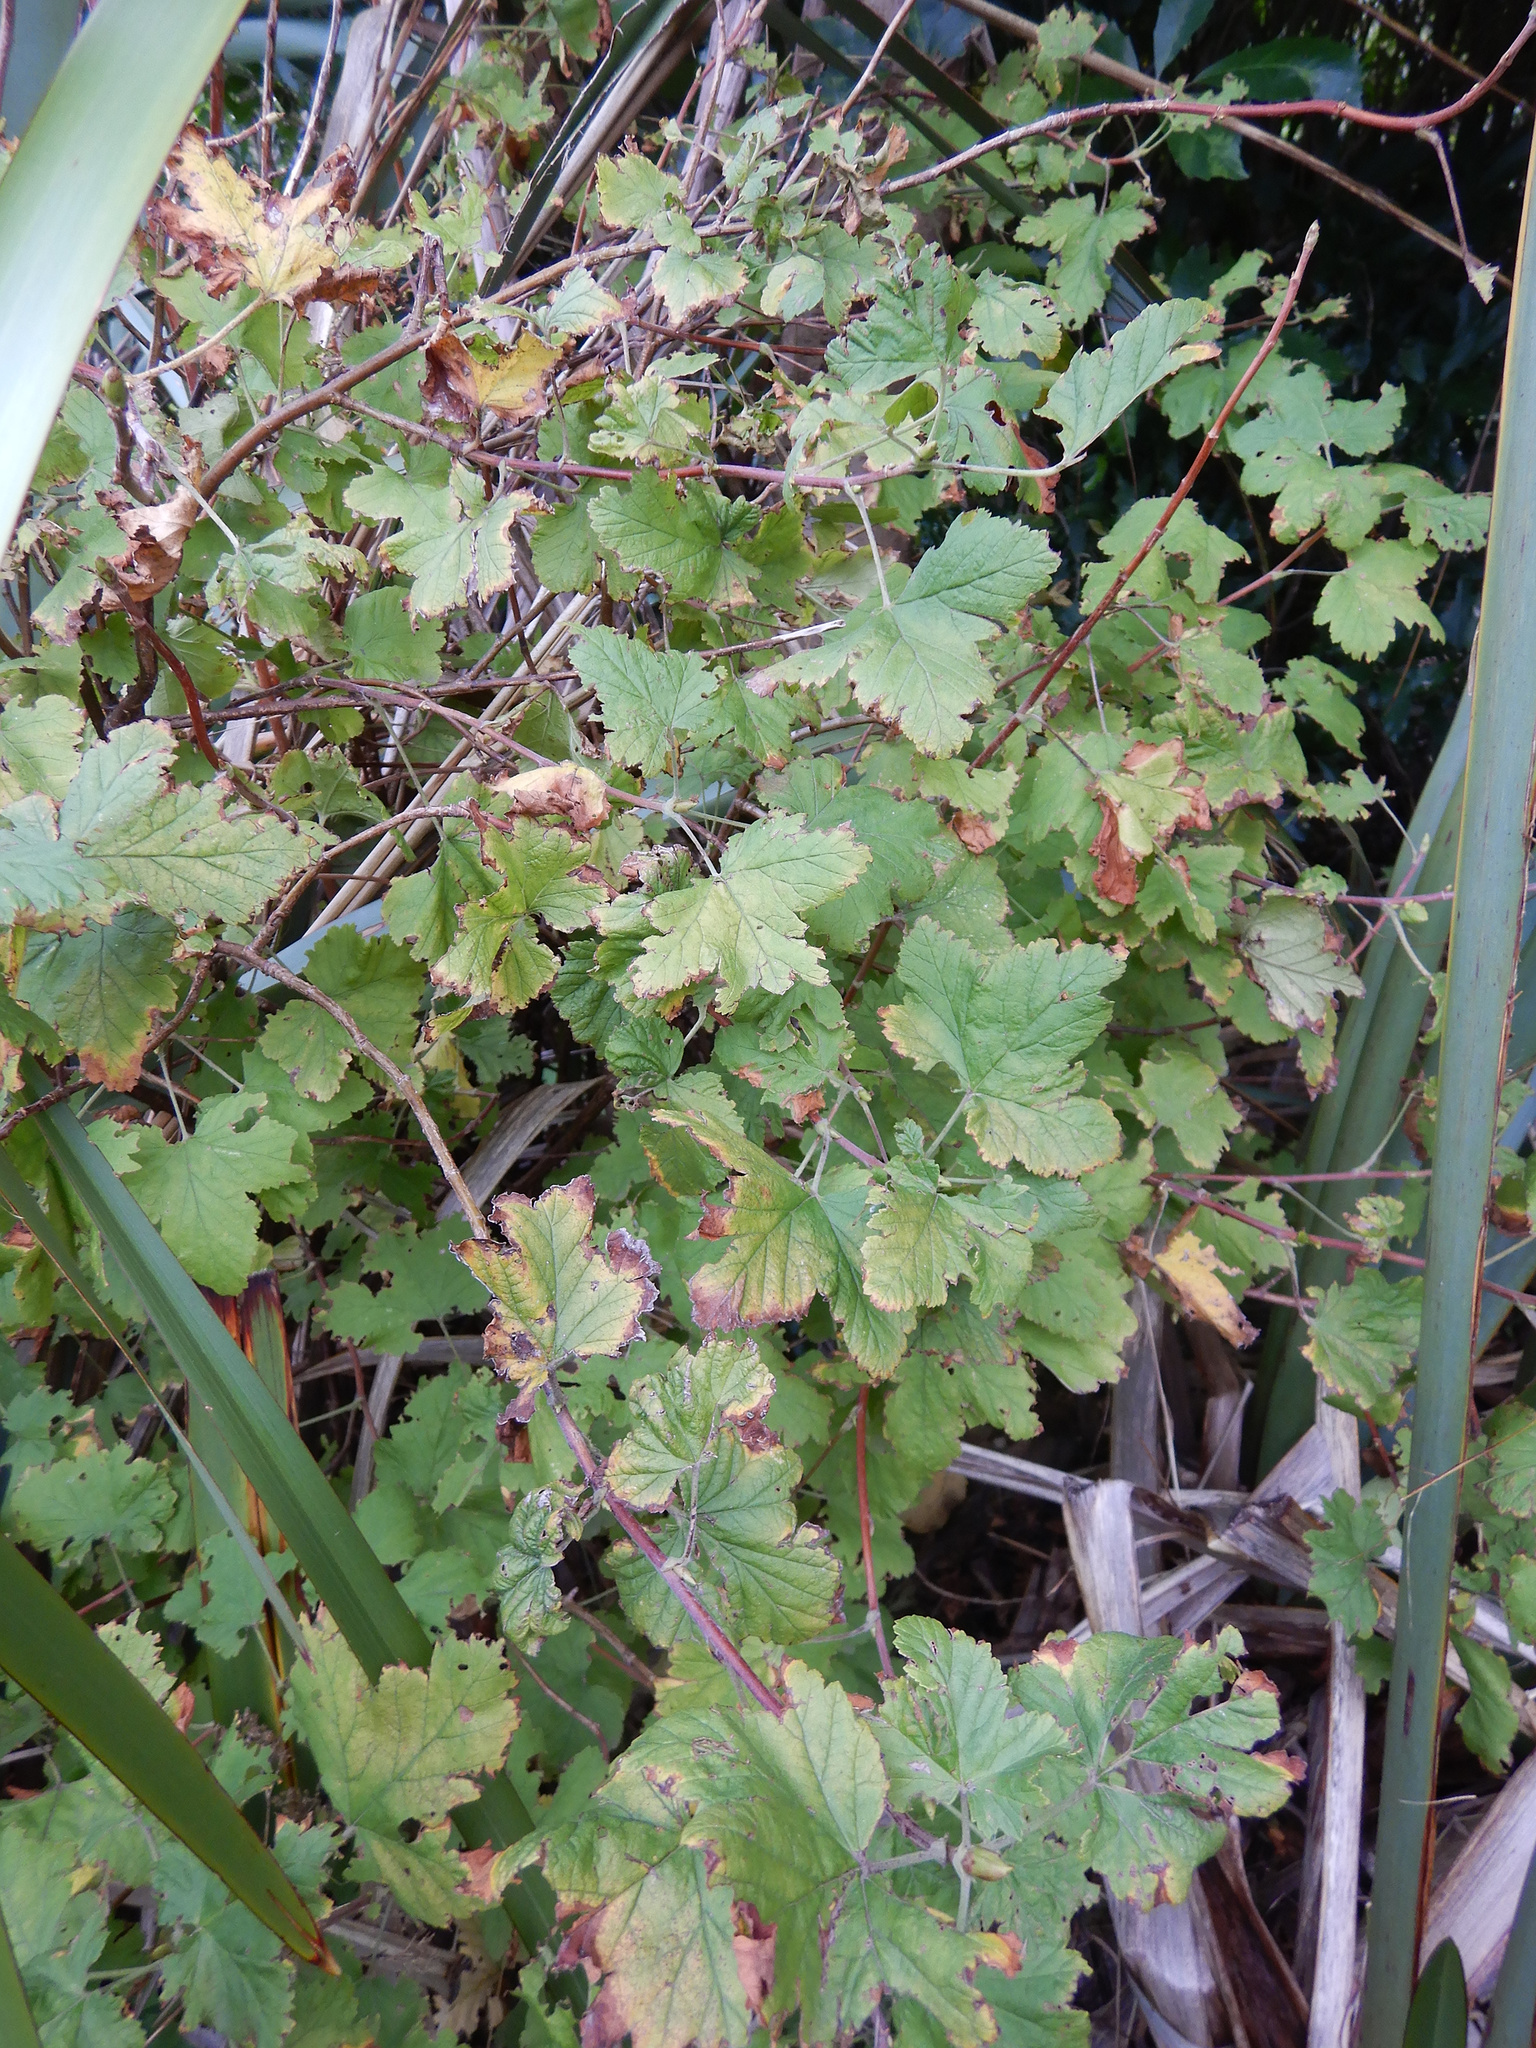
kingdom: Plantae
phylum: Tracheophyta
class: Magnoliopsida
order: Saxifragales
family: Grossulariaceae
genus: Ribes
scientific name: Ribes sanguineum
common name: Flowering currant
